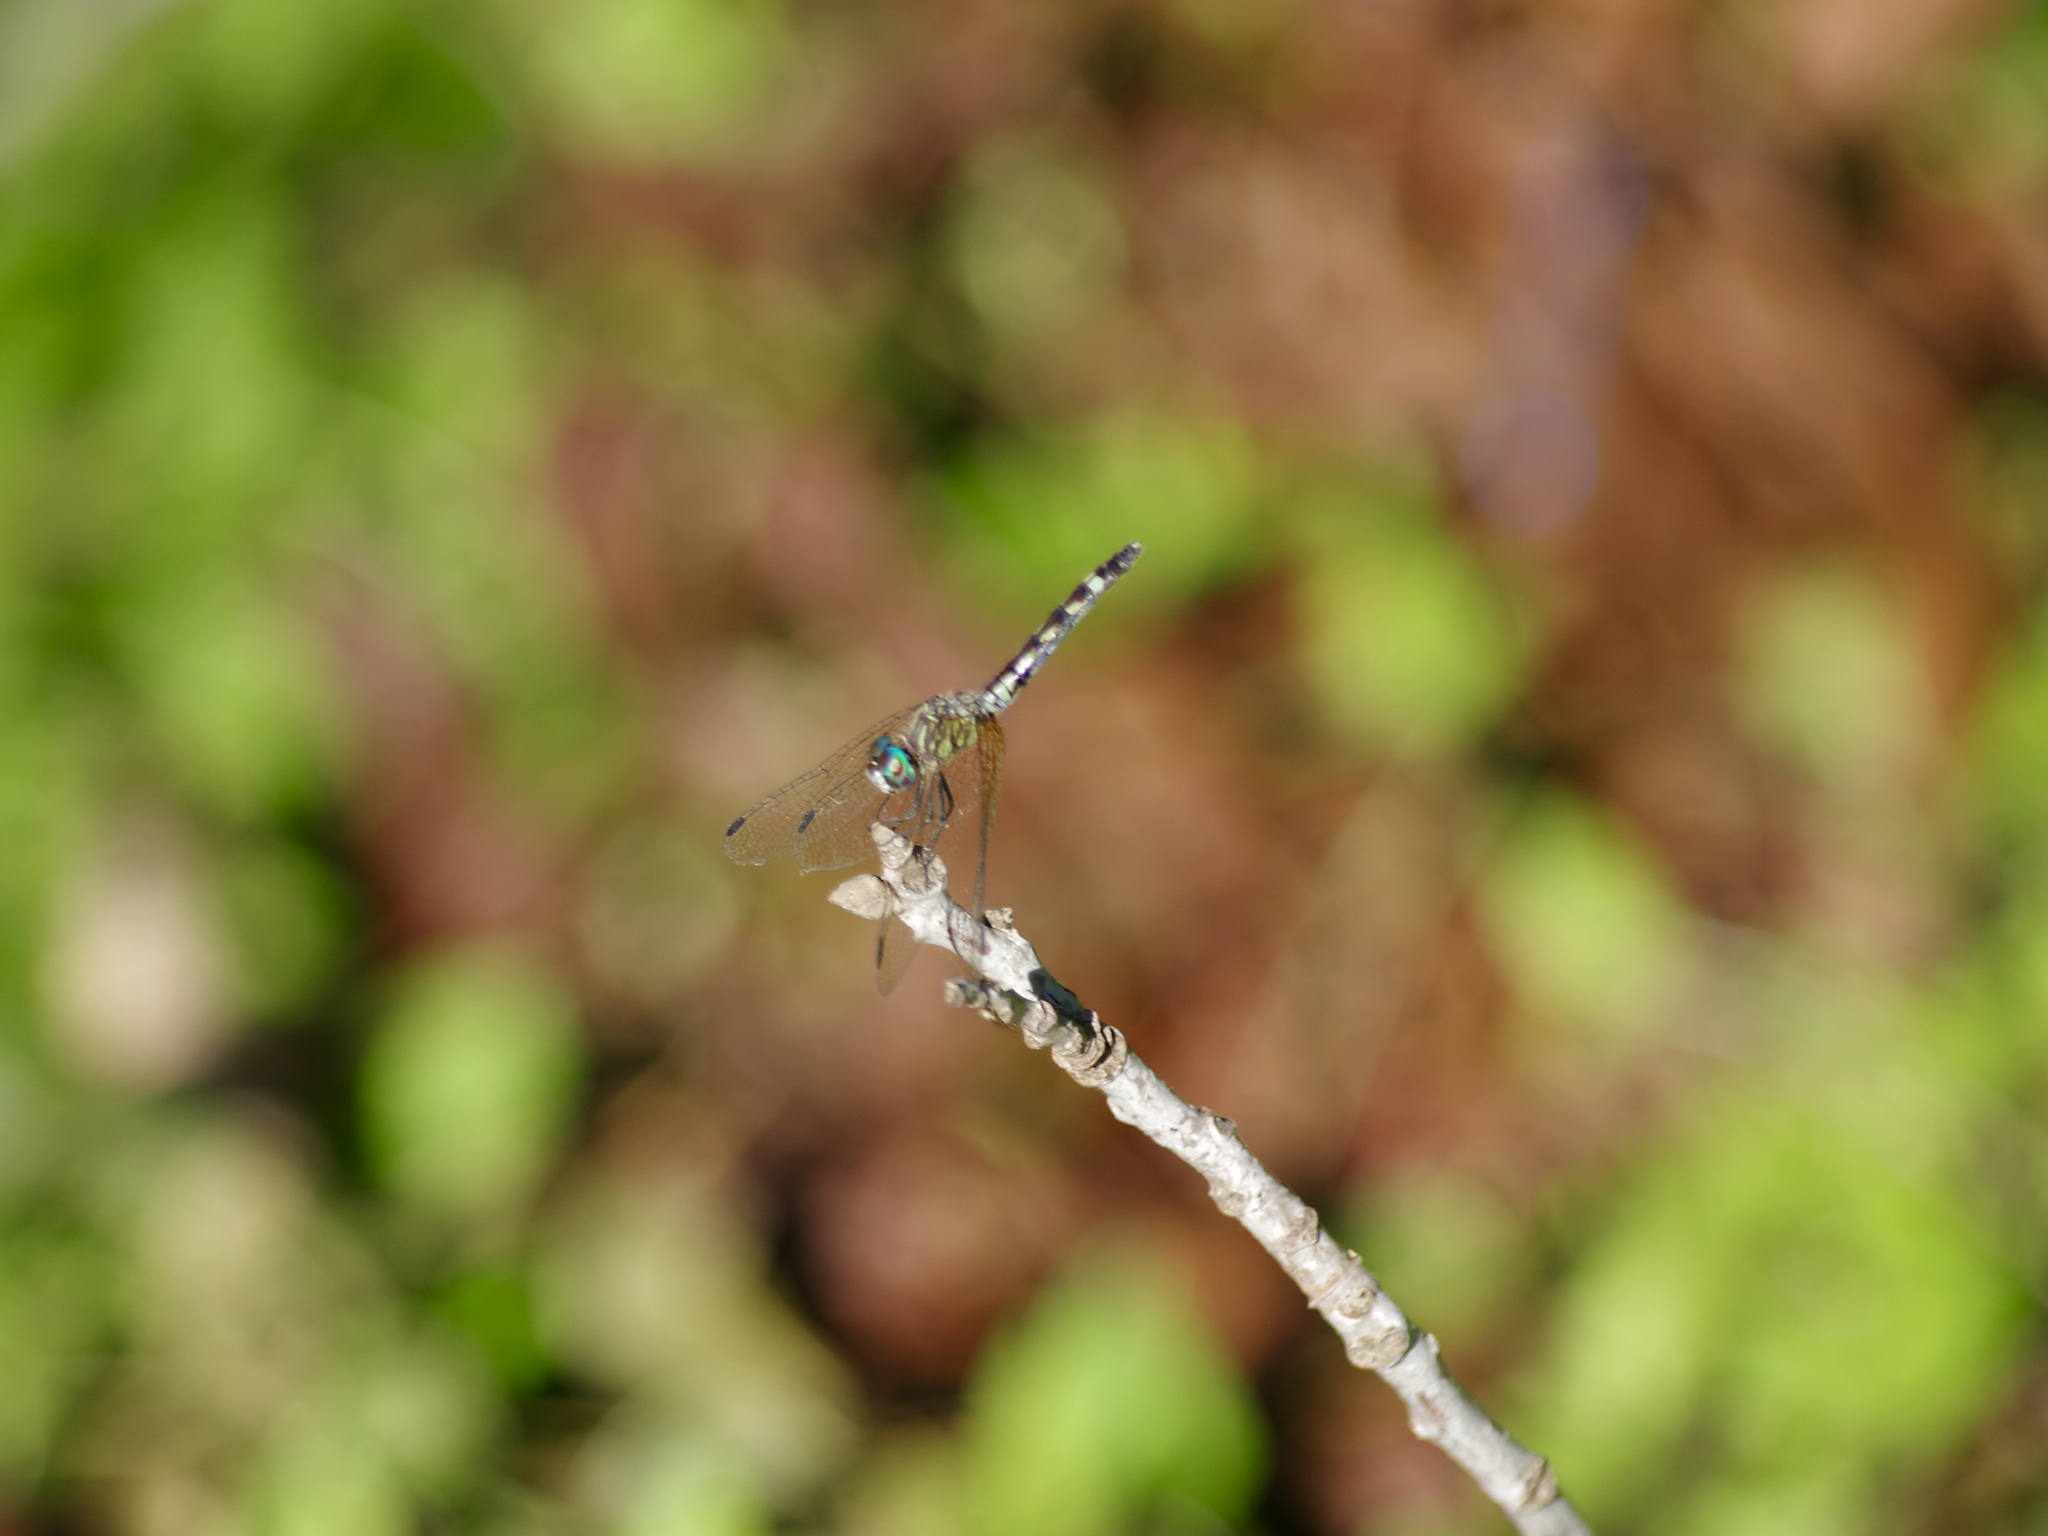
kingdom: Animalia
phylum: Arthropoda
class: Insecta
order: Odonata
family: Libellulidae
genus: Micrathyria
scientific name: Micrathyria hagenii
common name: Thornbush dasher
